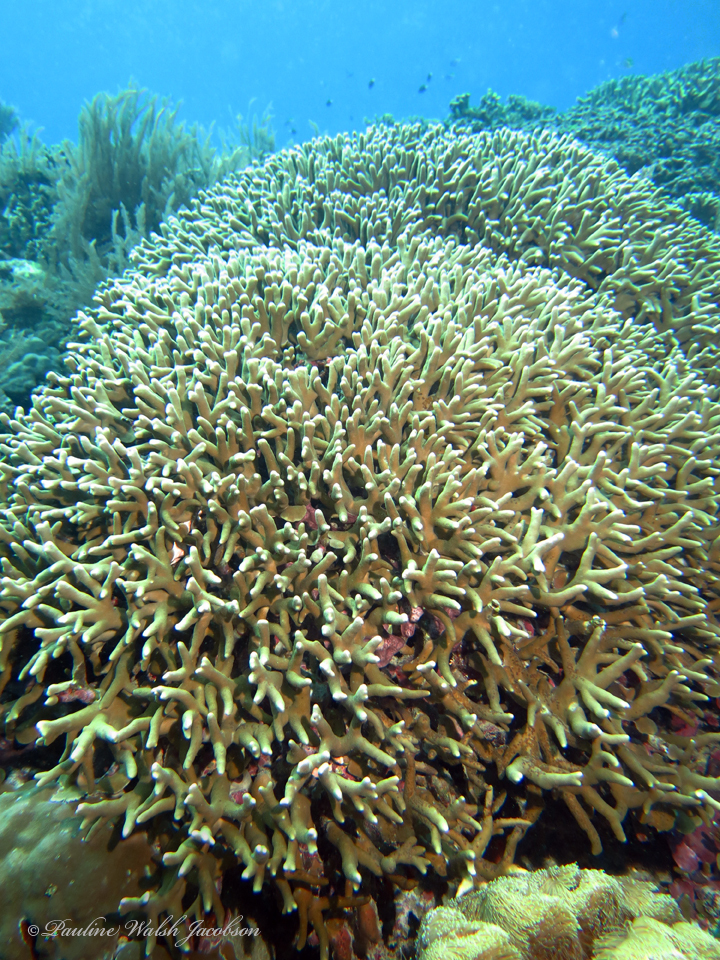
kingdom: Animalia
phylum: Cnidaria
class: Anthozoa
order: Scleractinia
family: Poritidae
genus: Porites
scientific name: Porites cylindrica
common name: Hump coral
